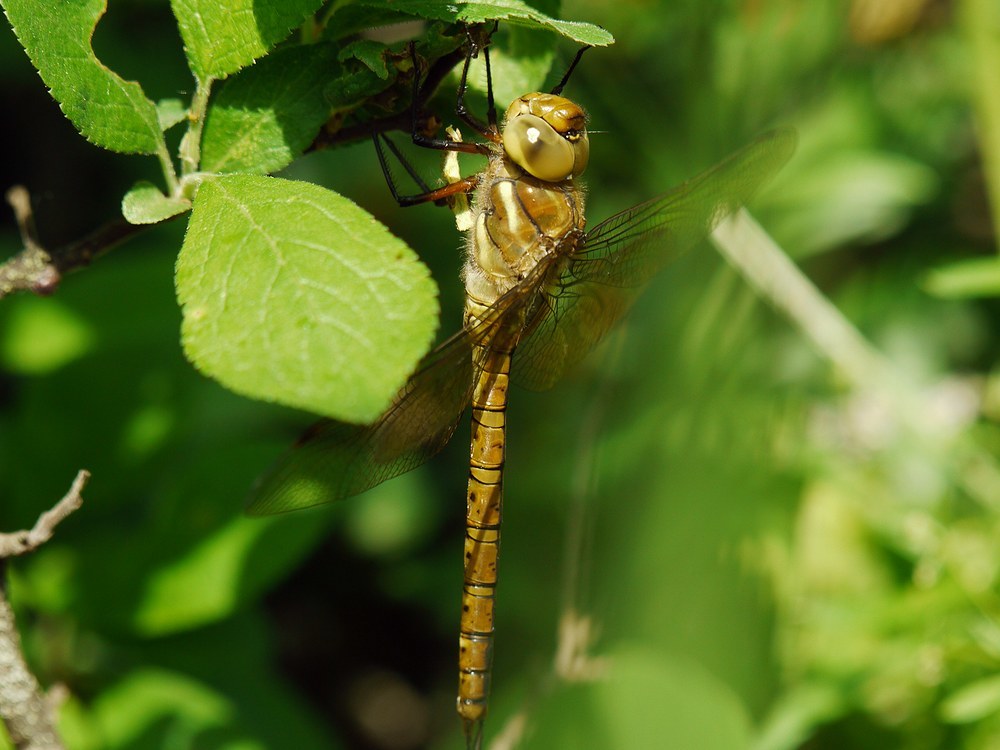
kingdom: Animalia
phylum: Arthropoda
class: Insecta
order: Odonata
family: Aeshnidae
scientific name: Aeshnidae
